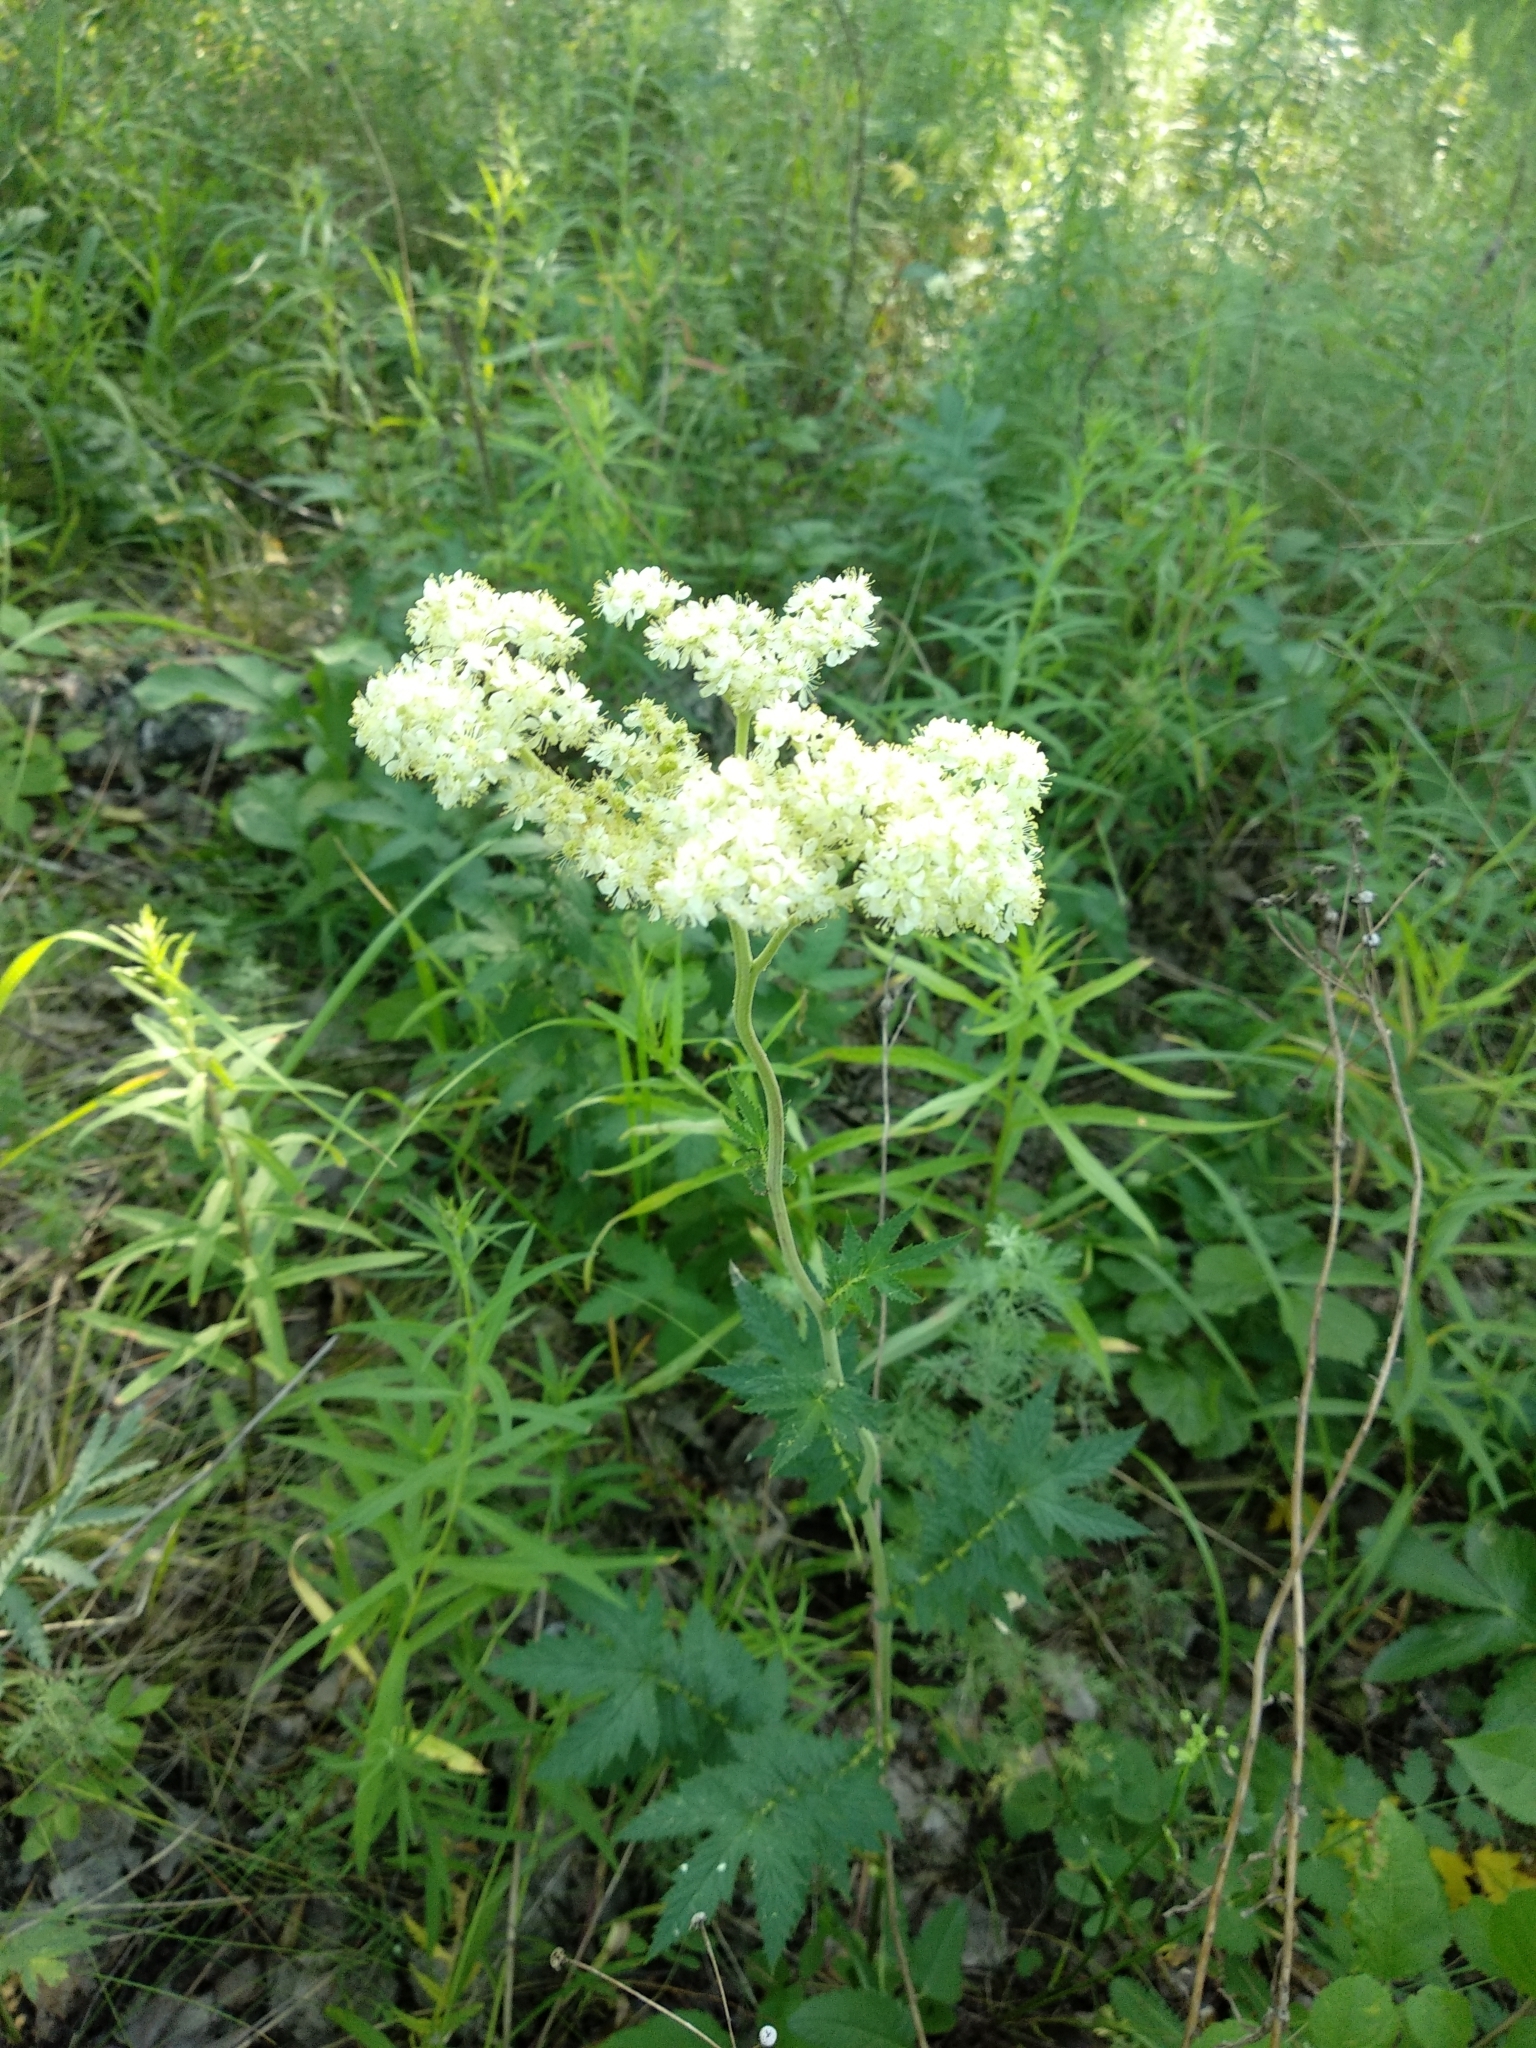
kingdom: Plantae
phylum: Tracheophyta
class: Magnoliopsida
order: Rosales
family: Rosaceae
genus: Filipendula
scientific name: Filipendula ulmaria
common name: Meadowsweet
